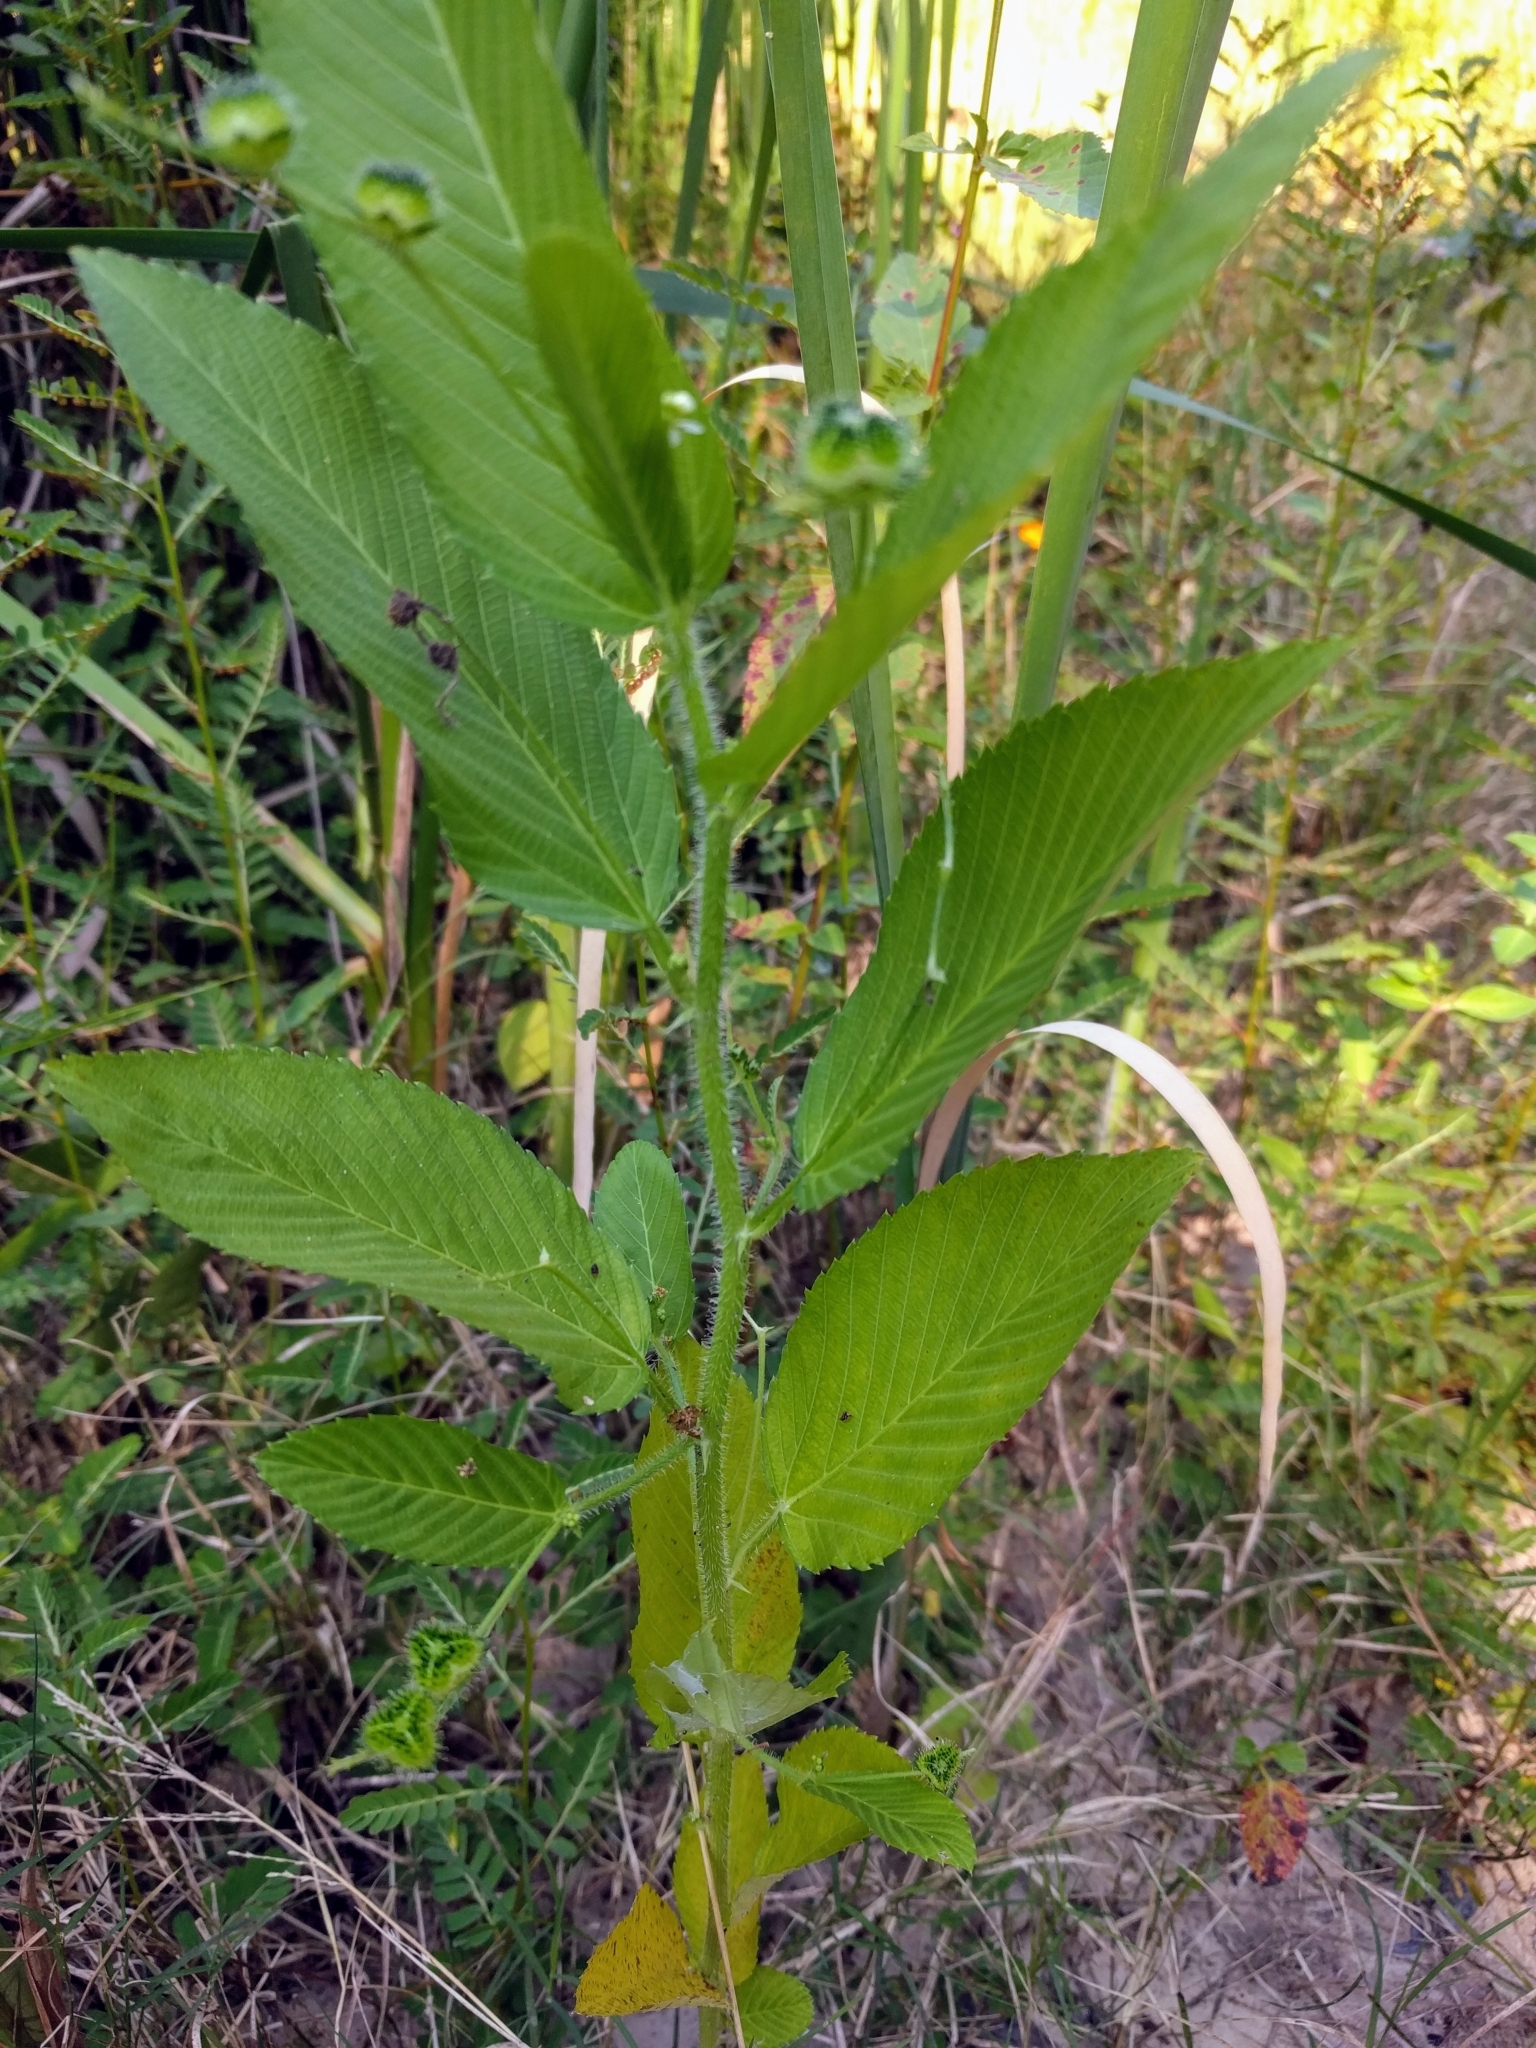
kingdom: Plantae
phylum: Tracheophyta
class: Magnoliopsida
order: Malpighiales
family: Euphorbiaceae
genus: Caperonia
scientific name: Caperonia palustris
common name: Sacatrapo
